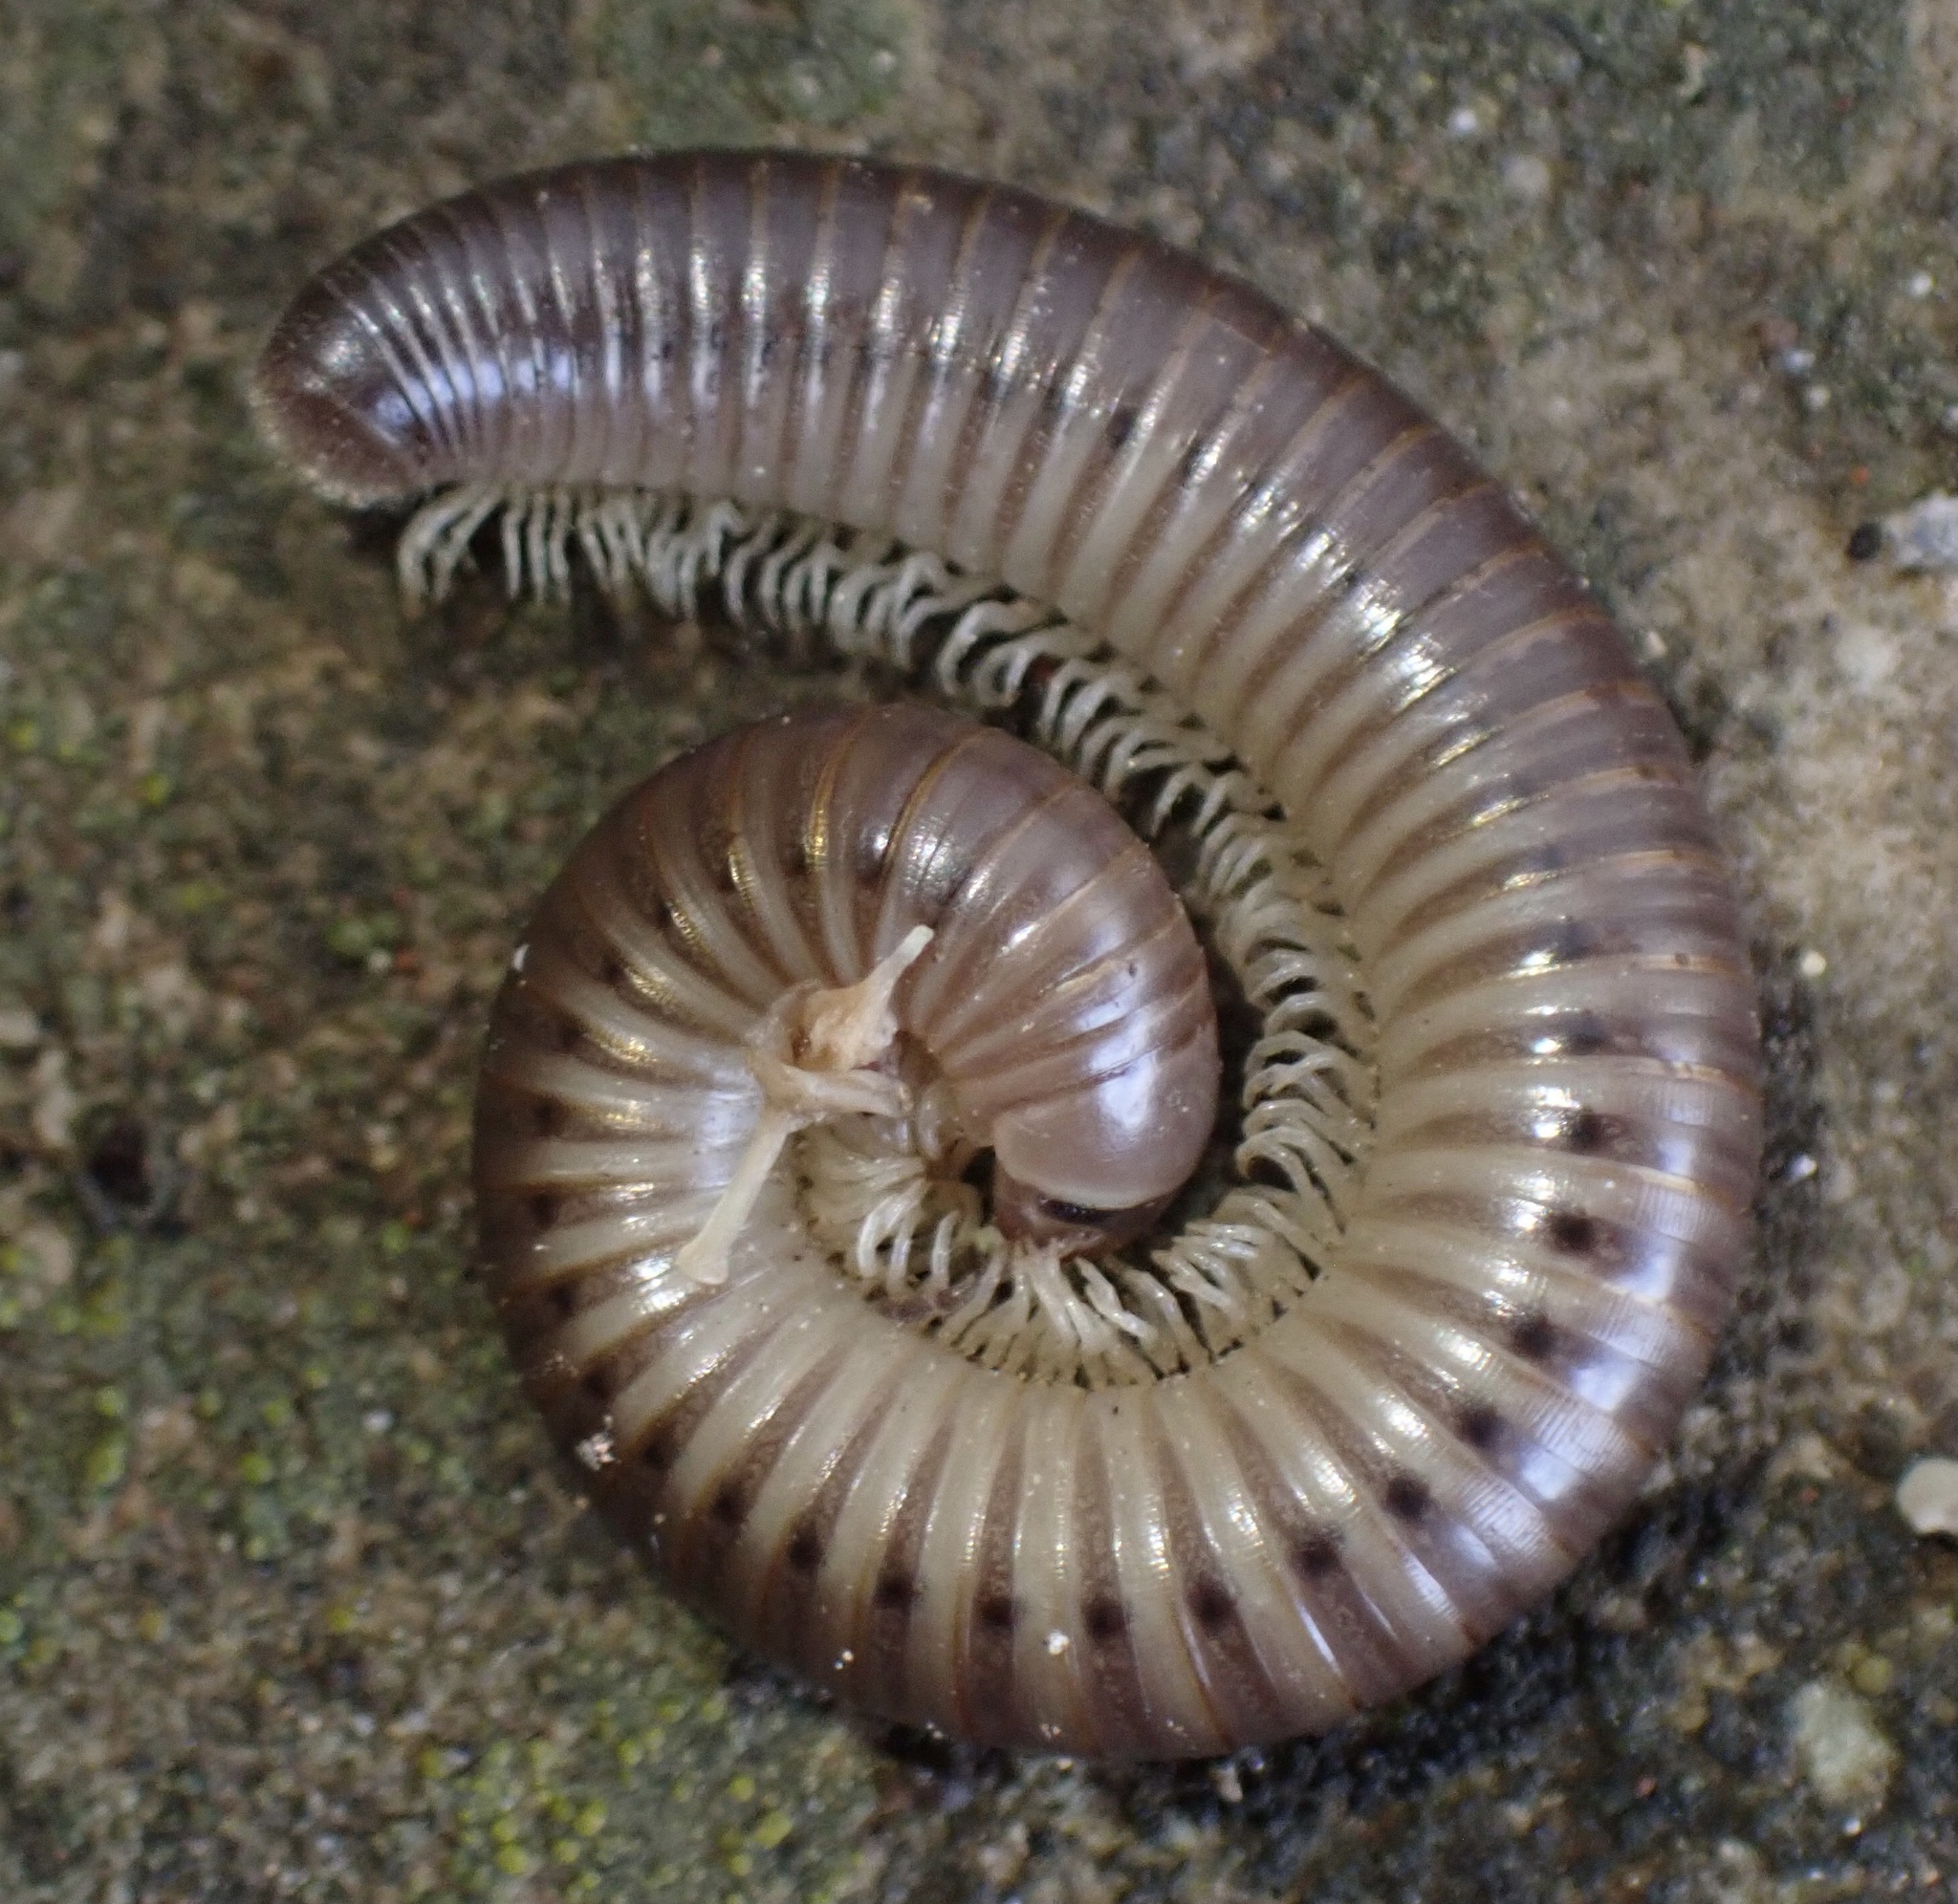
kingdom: Animalia
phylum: Arthropoda
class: Diplopoda
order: Julida
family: Julidae
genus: Pachyiulus
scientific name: Pachyiulus flavipes
